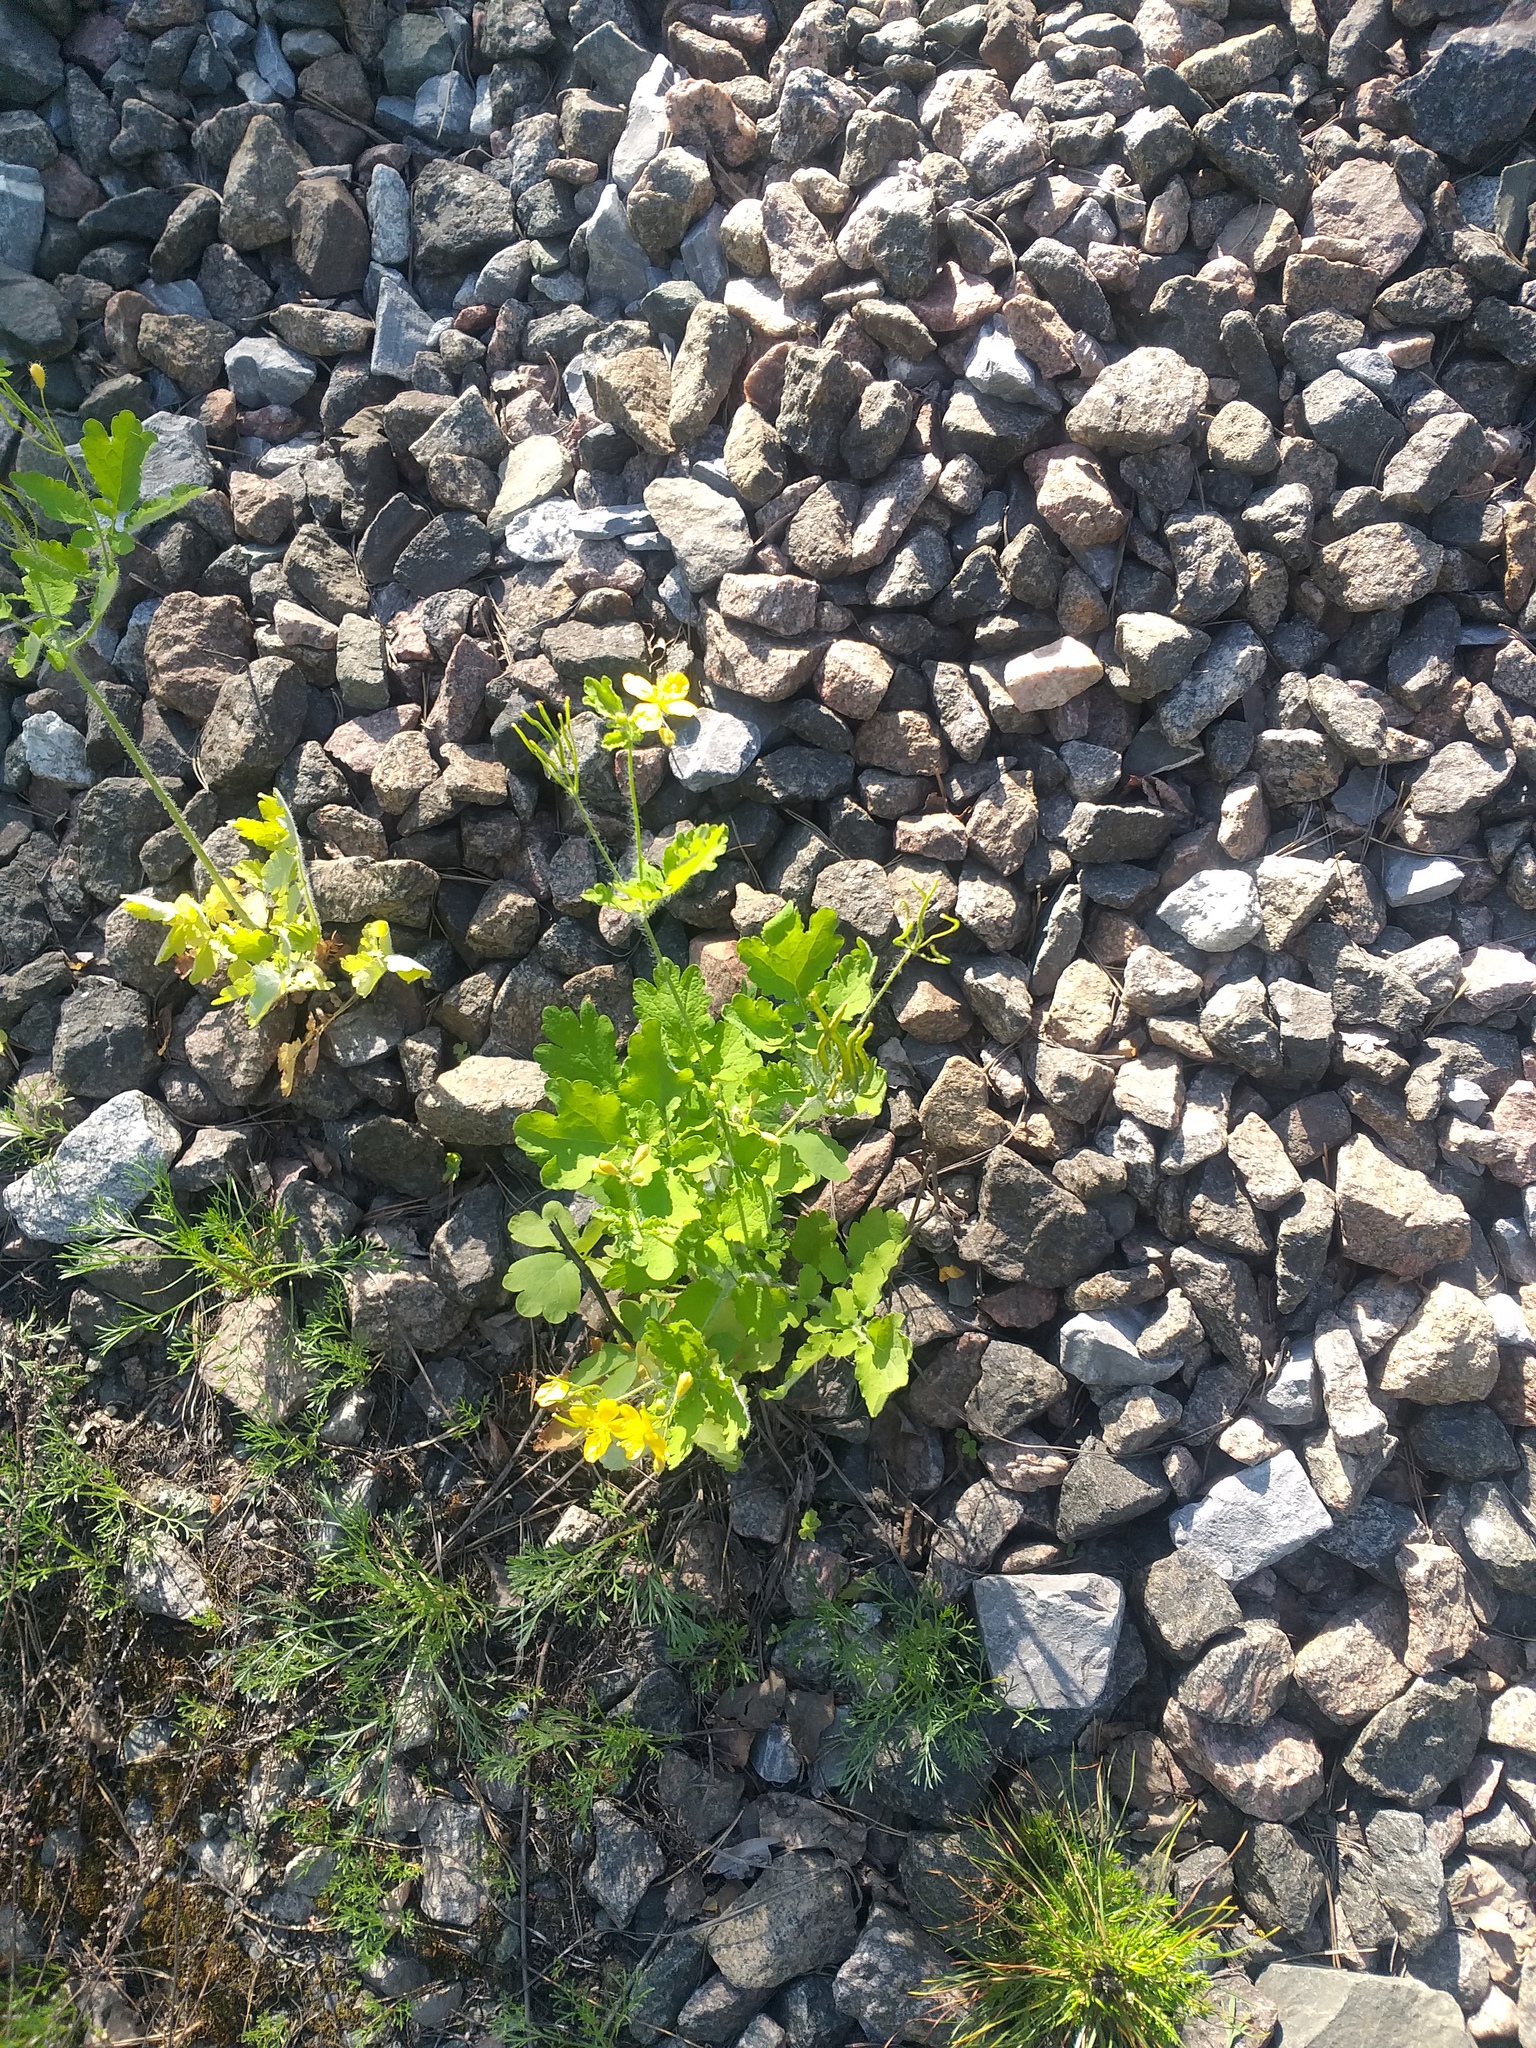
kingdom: Plantae
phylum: Tracheophyta
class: Magnoliopsida
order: Ranunculales
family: Papaveraceae
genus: Chelidonium
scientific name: Chelidonium majus
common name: Greater celandine
